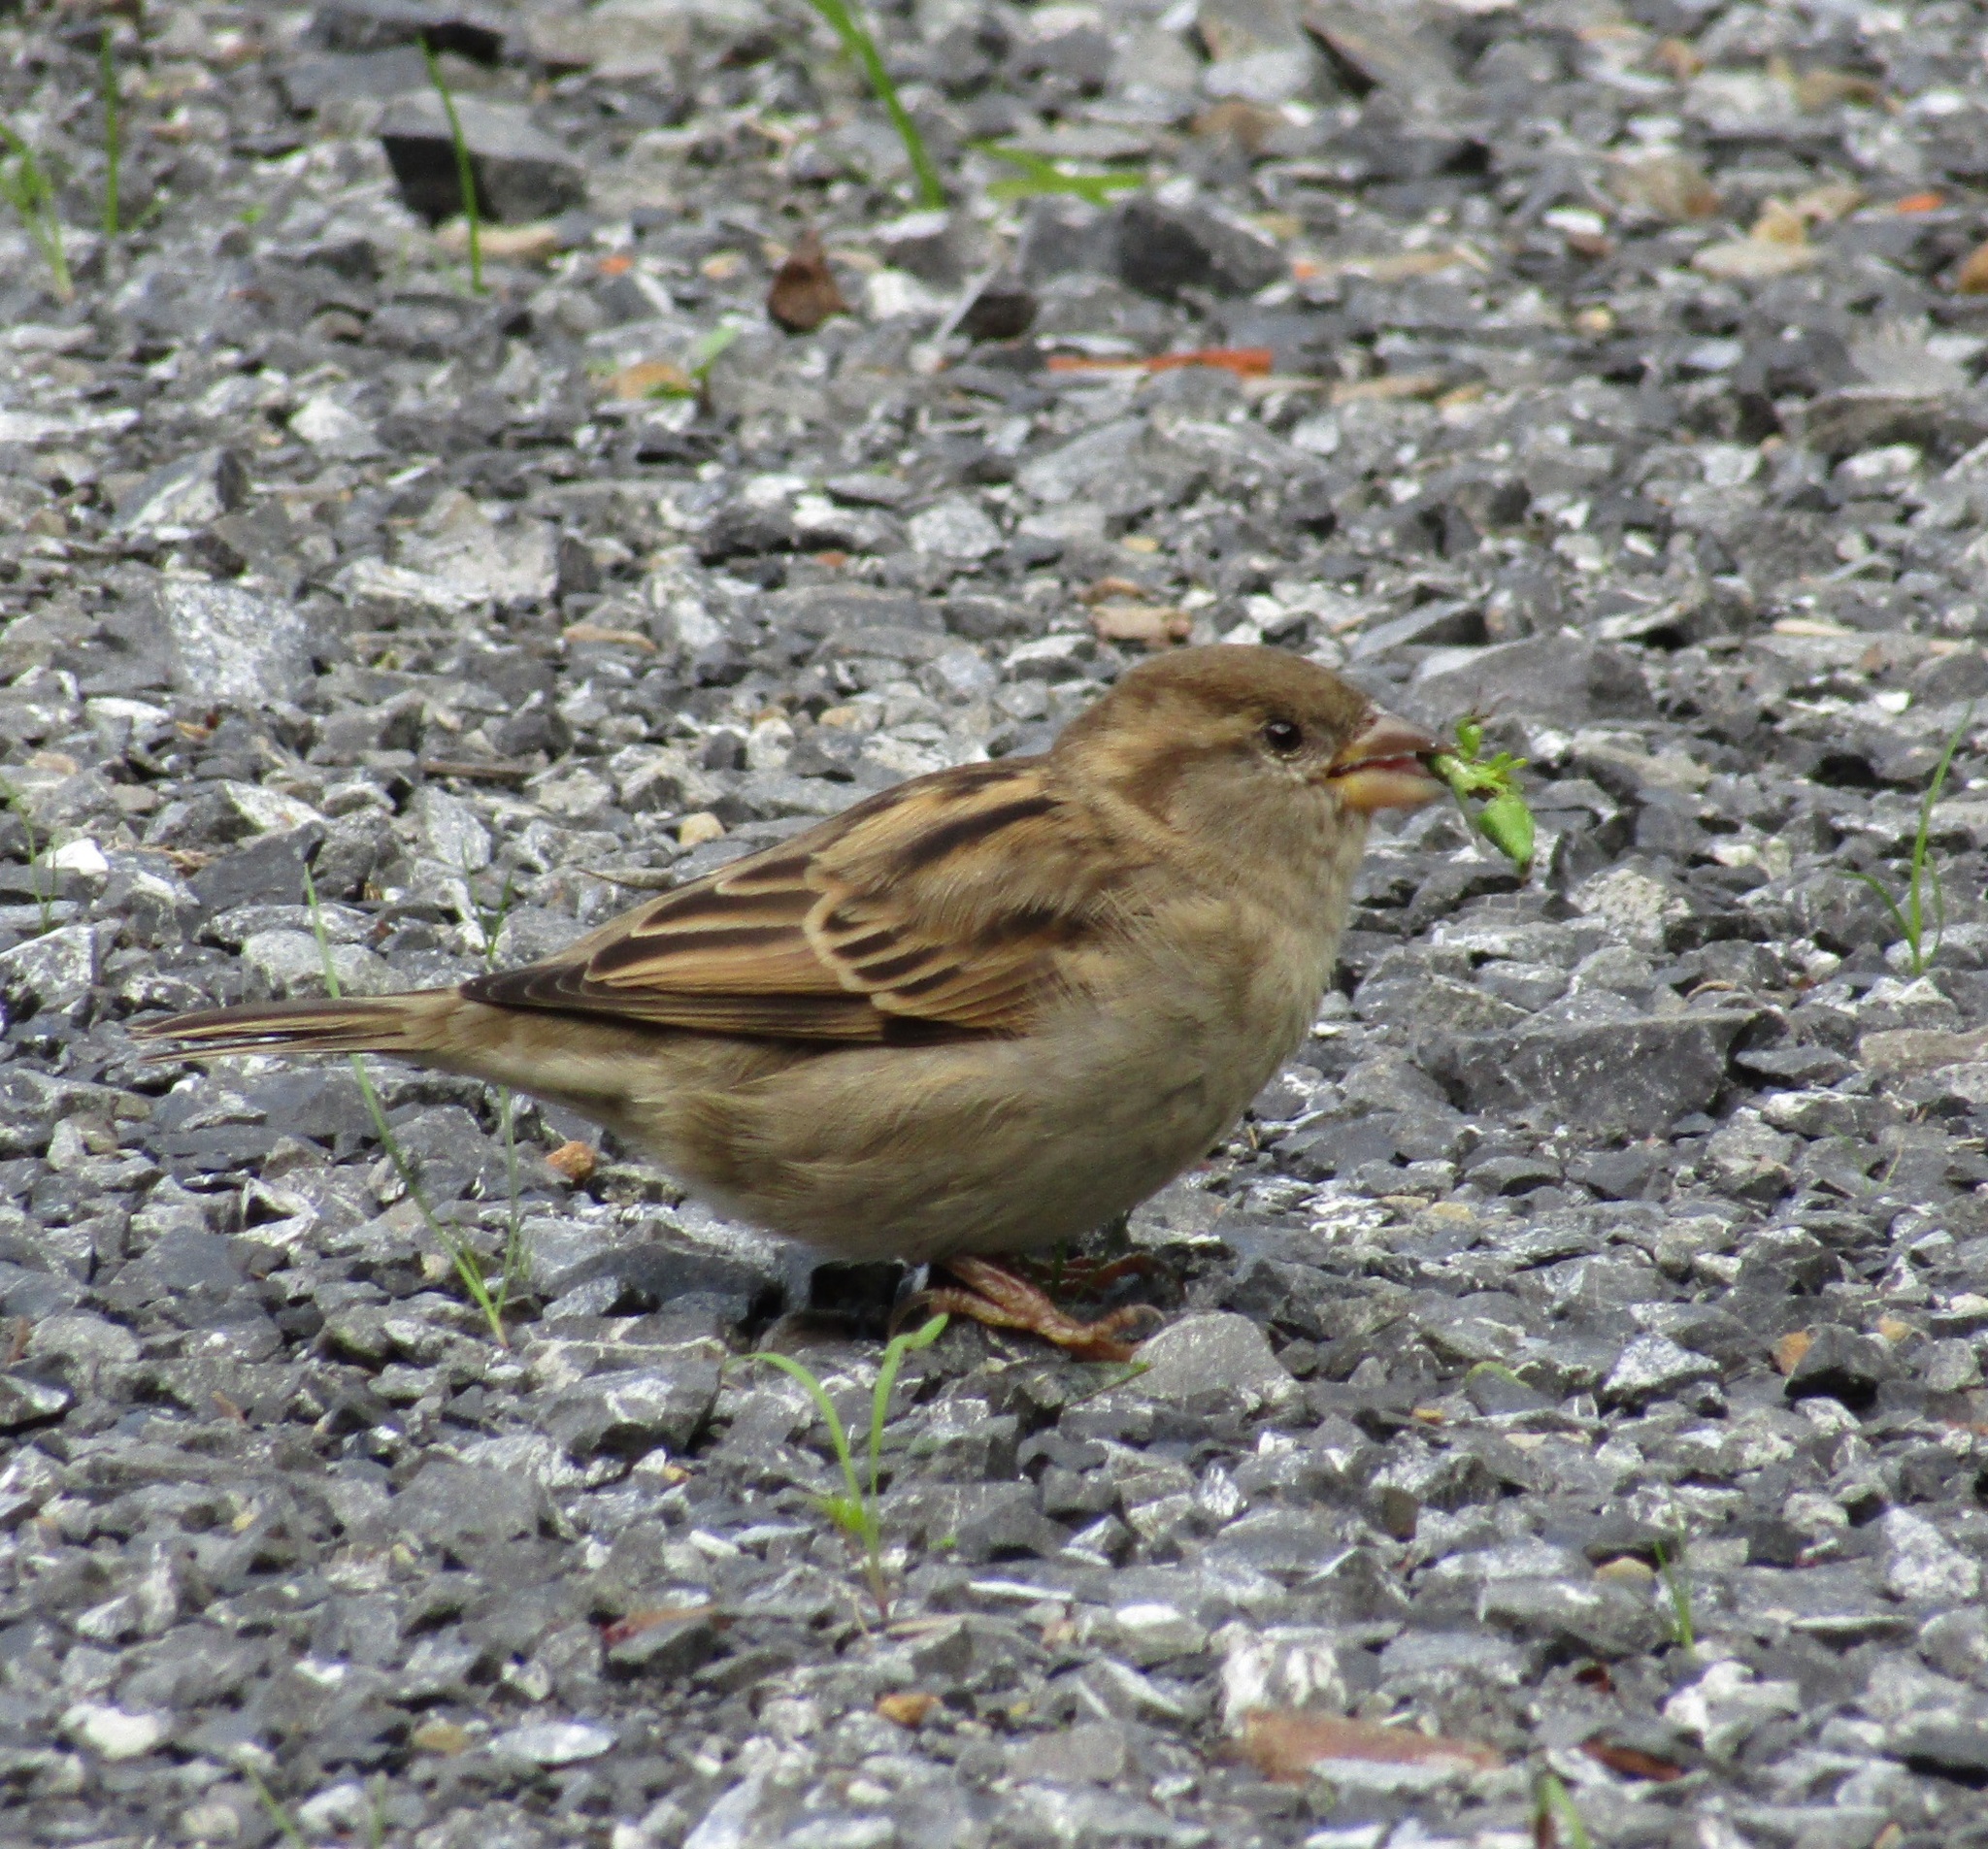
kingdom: Animalia
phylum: Chordata
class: Aves
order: Passeriformes
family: Passeridae
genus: Passer
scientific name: Passer domesticus
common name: House sparrow
